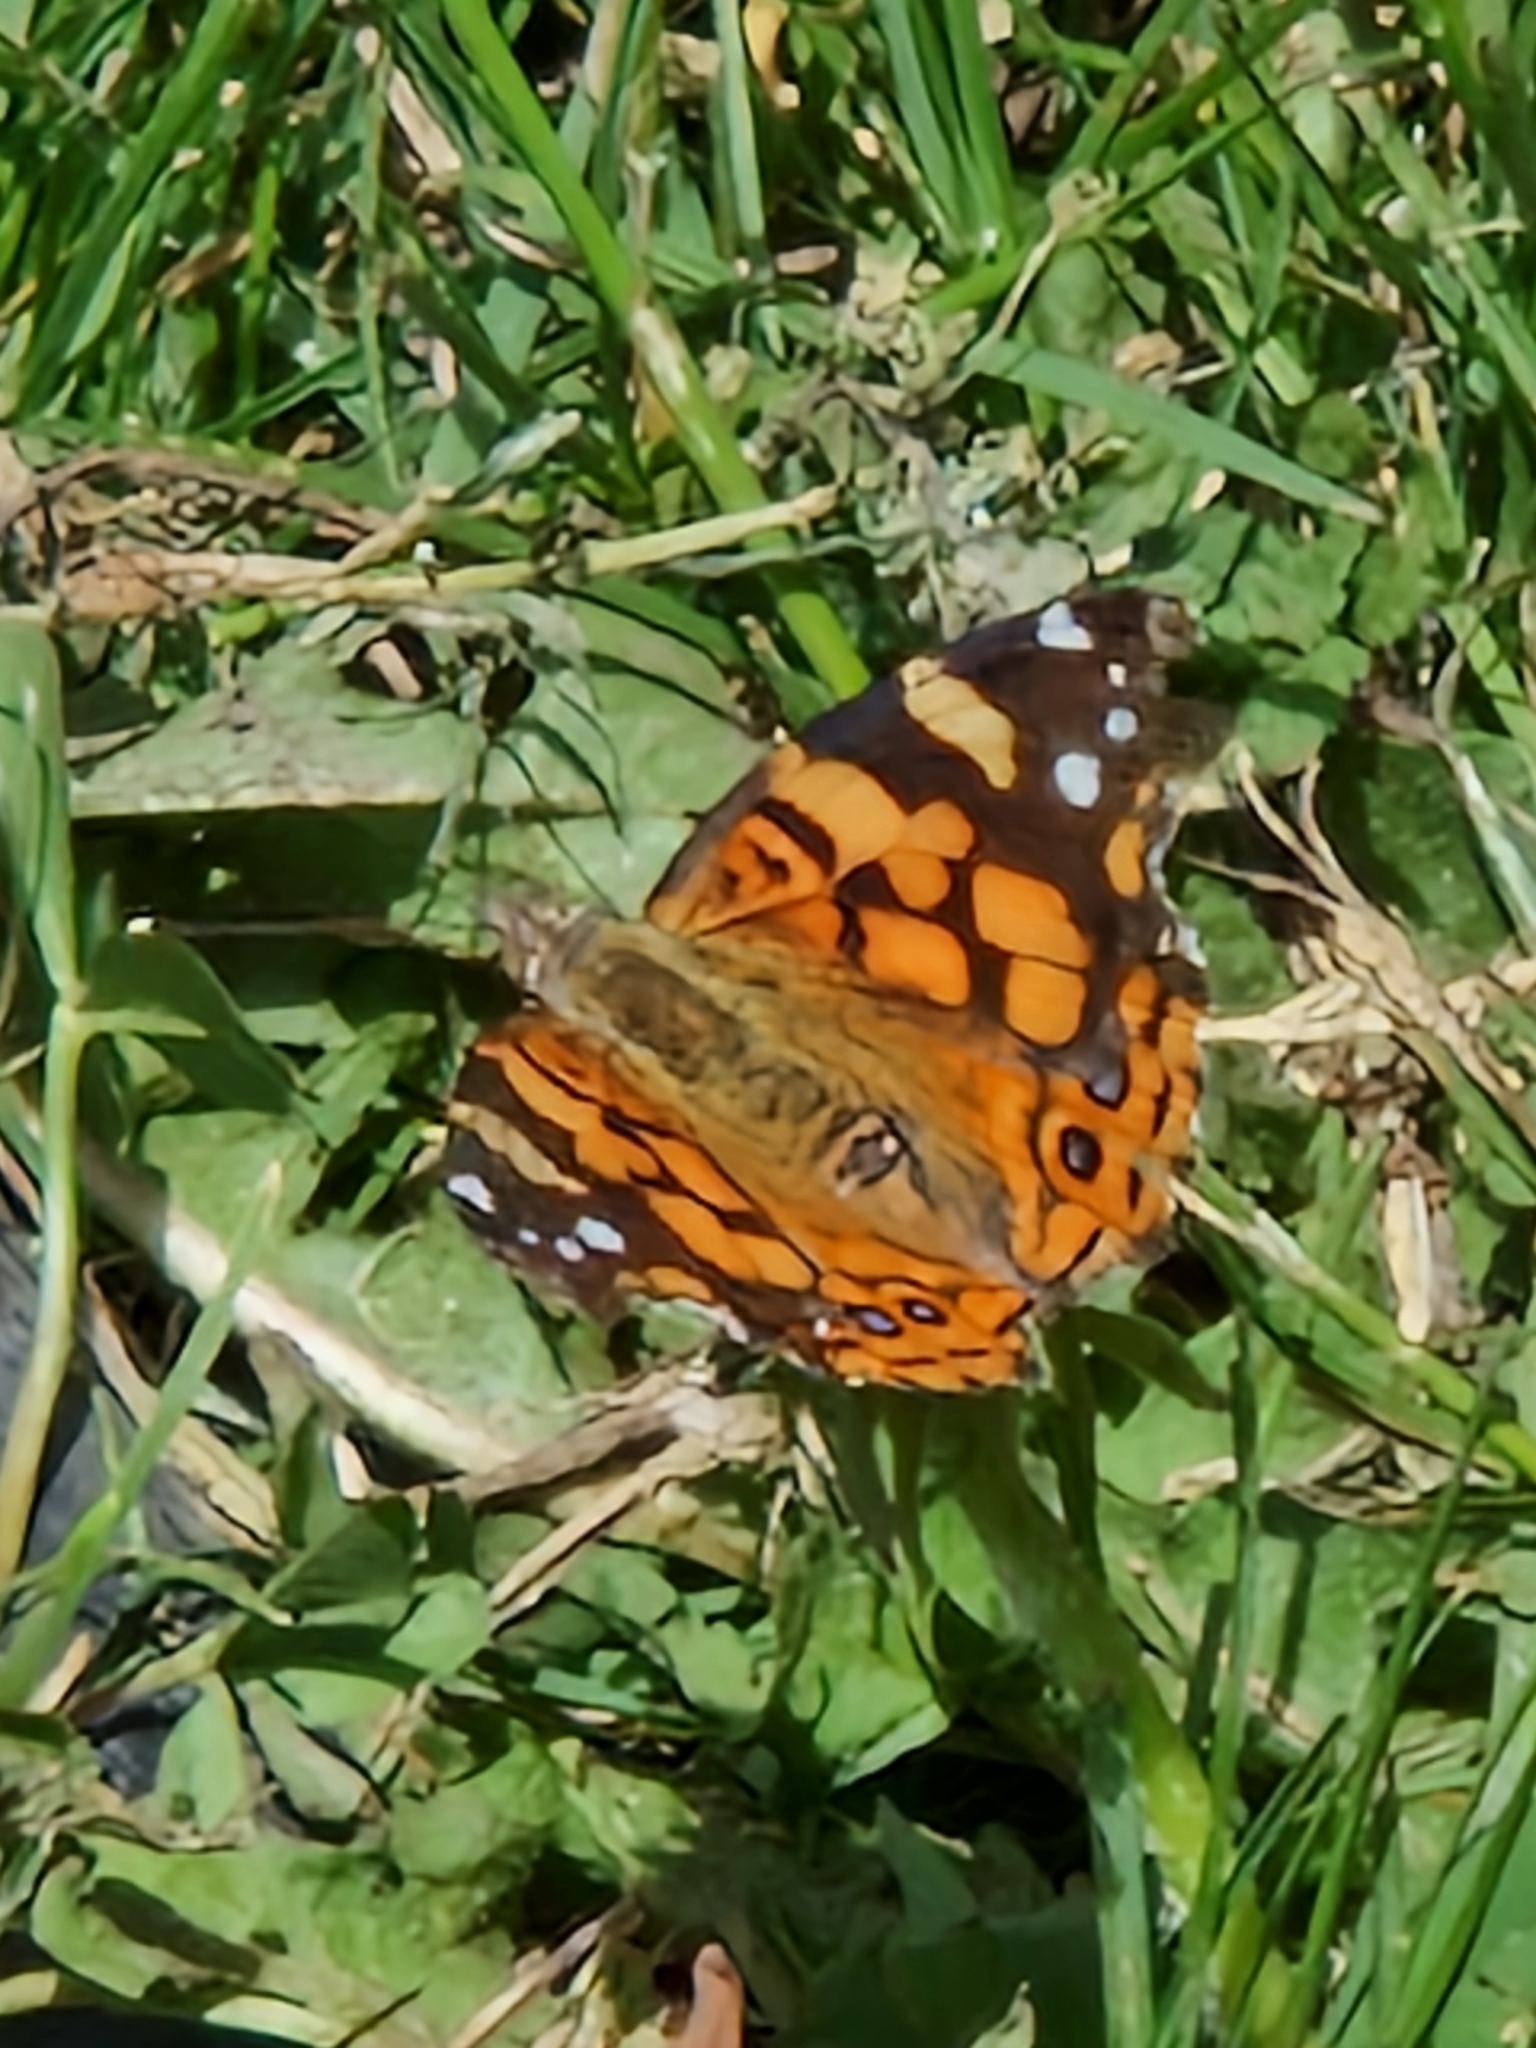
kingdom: Animalia
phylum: Arthropoda
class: Insecta
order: Lepidoptera
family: Nymphalidae
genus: Vanessa
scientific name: Vanessa carye
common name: Subtropical lady
